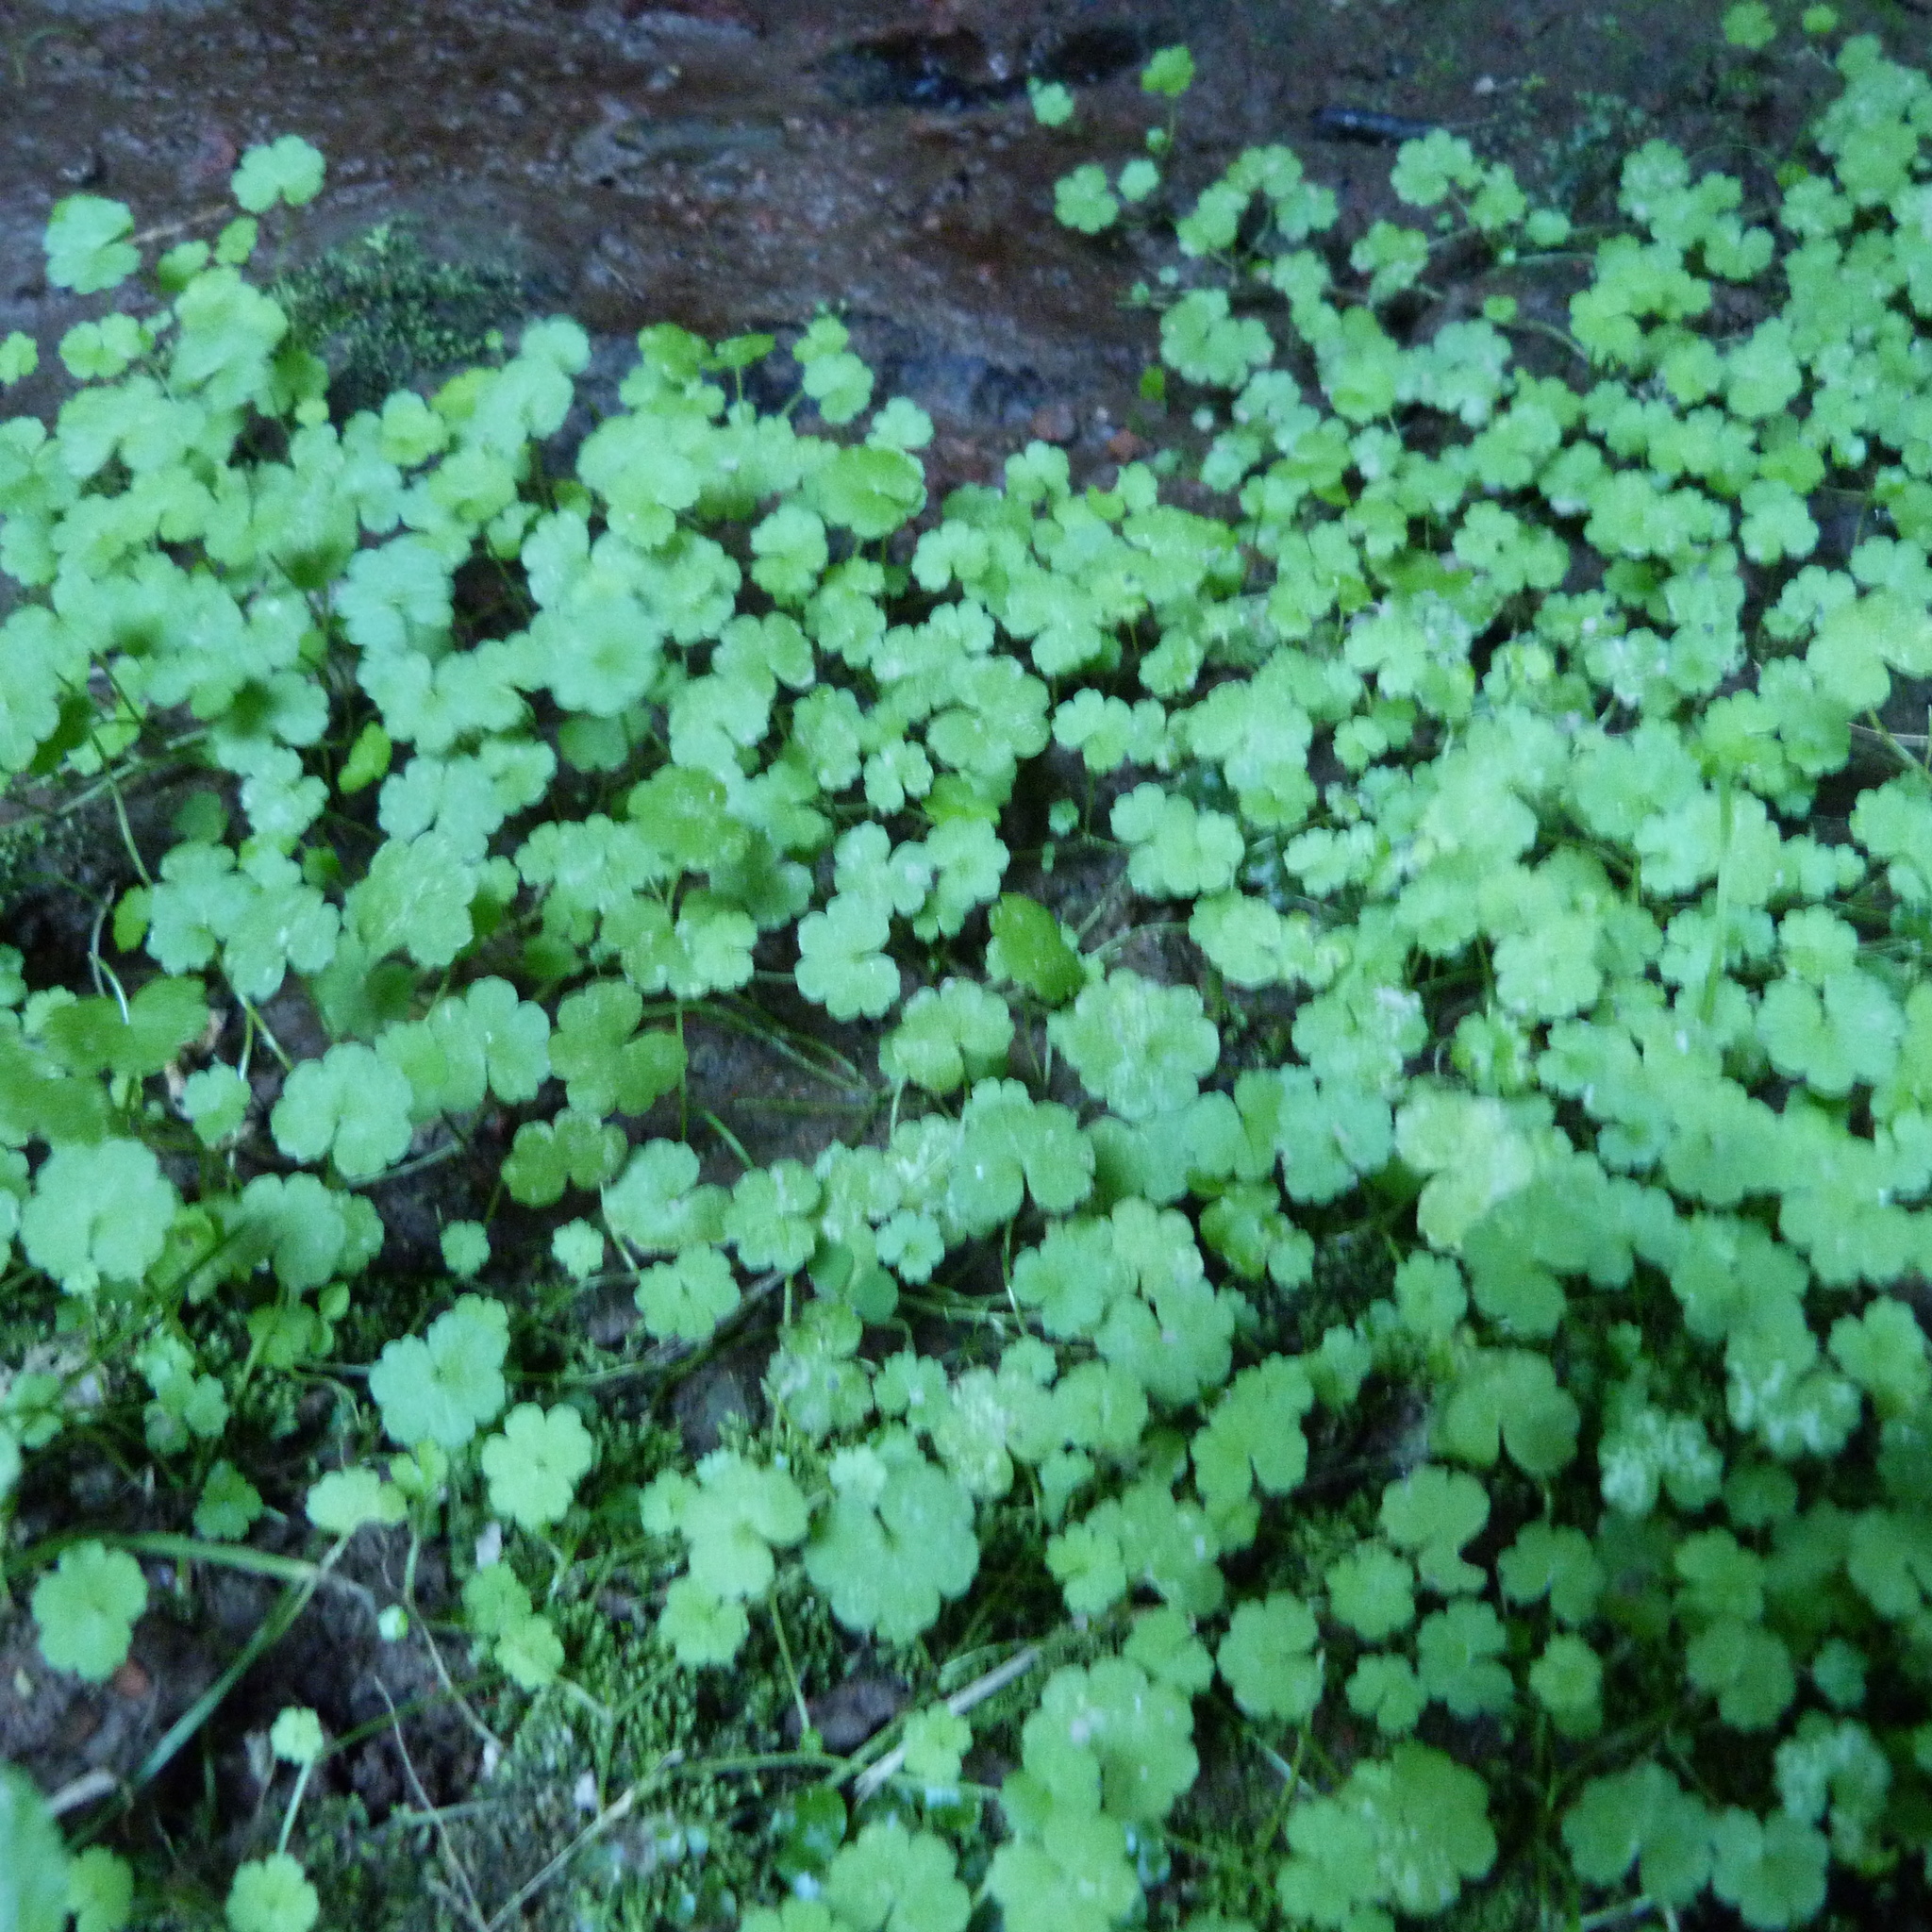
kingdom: Plantae
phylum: Tracheophyta
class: Magnoliopsida
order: Apiales
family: Araliaceae
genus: Hydrocotyle
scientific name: Hydrocotyle heteromeria
